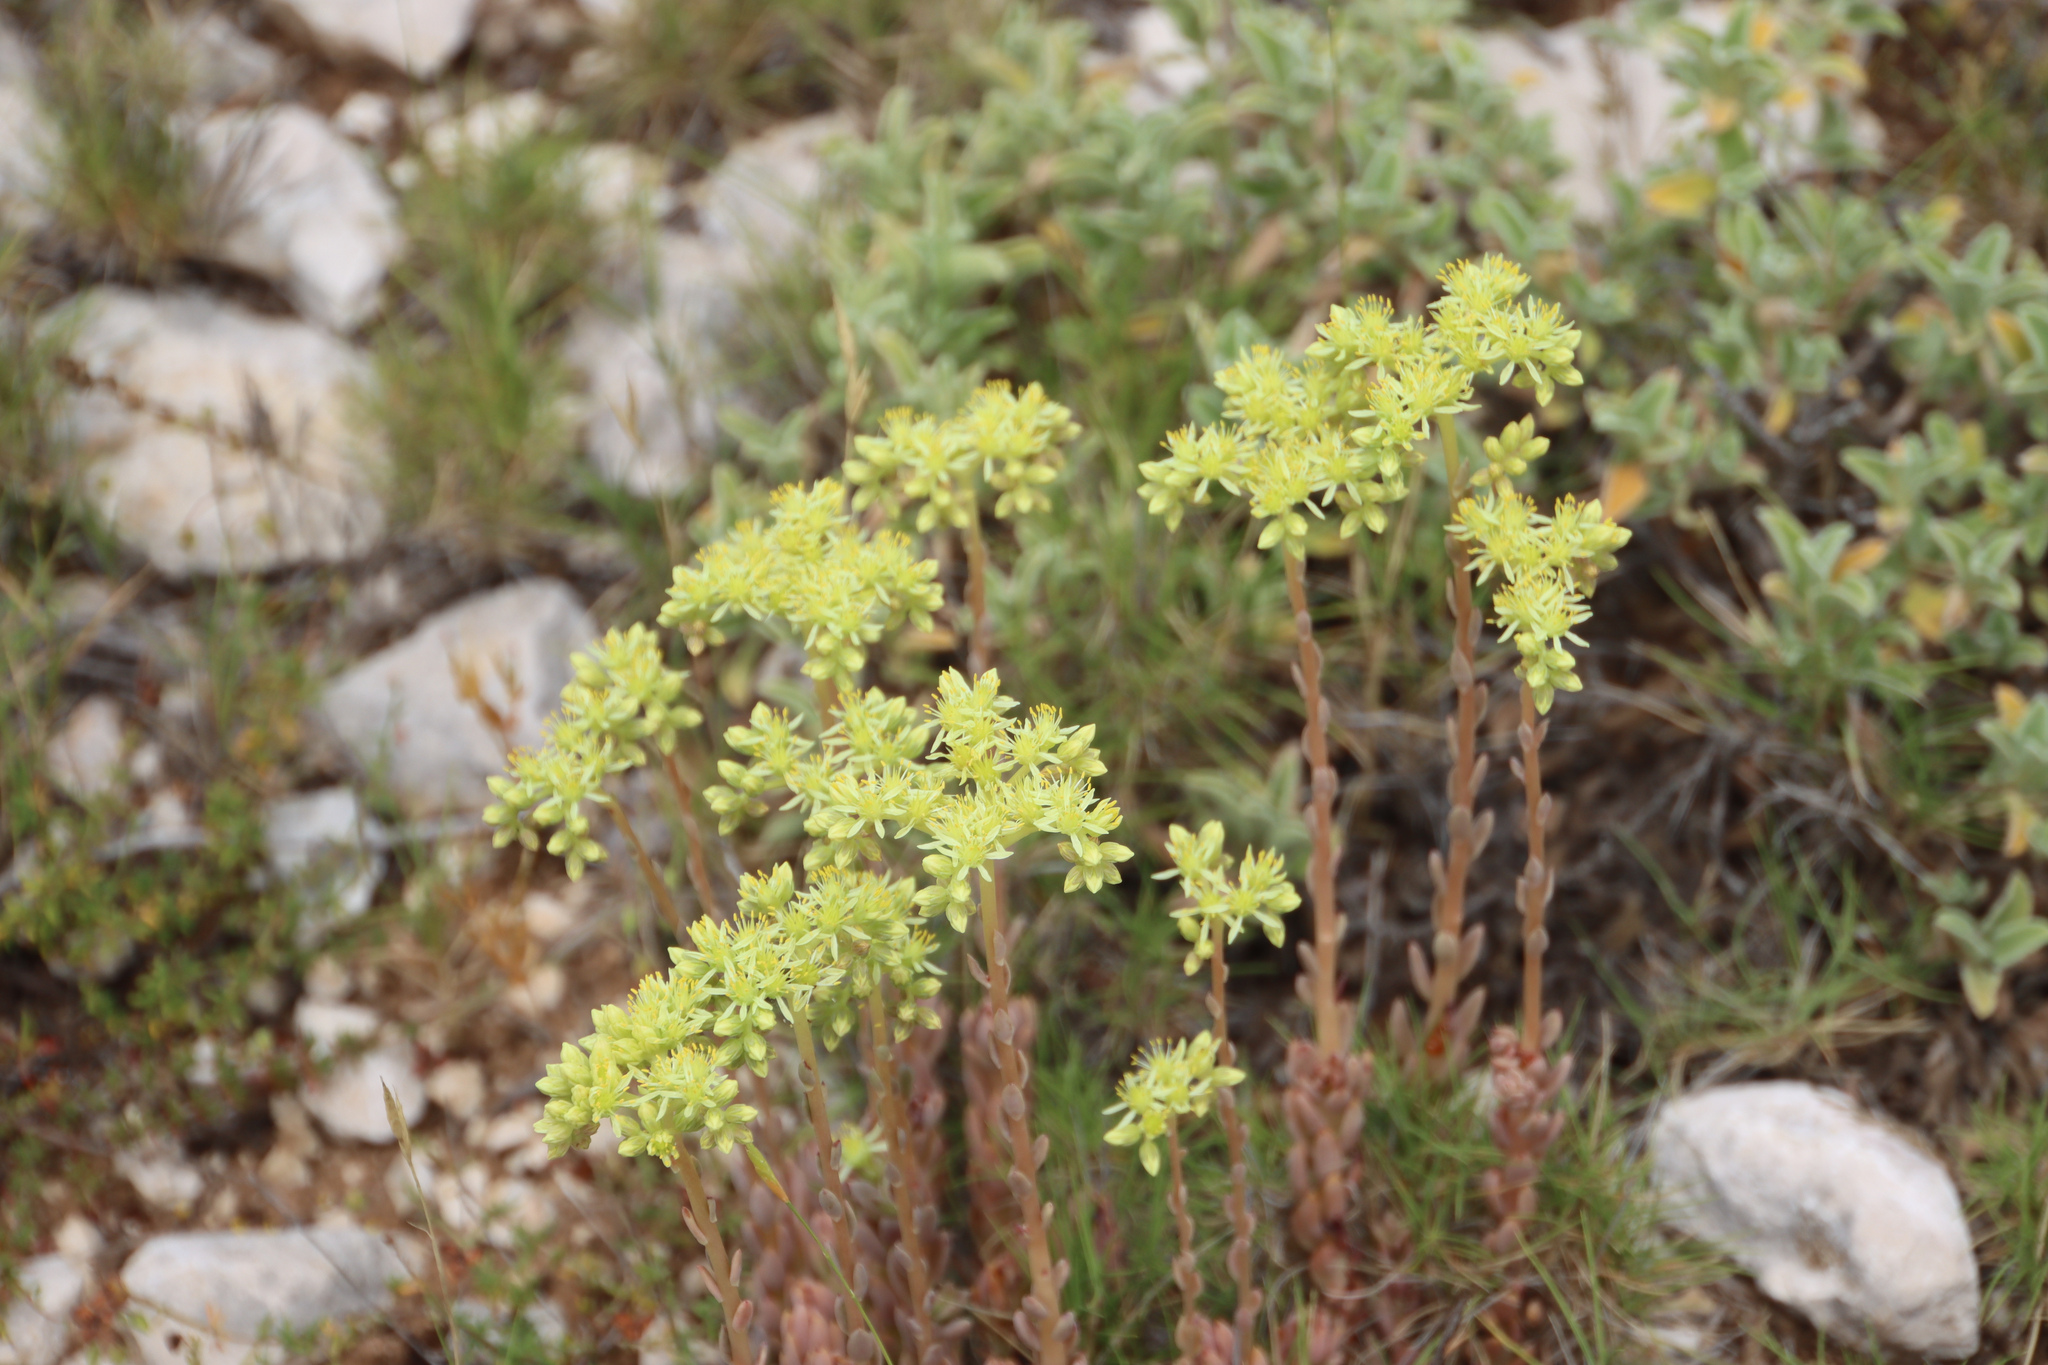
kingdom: Plantae
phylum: Tracheophyta
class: Magnoliopsida
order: Saxifragales
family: Crassulaceae
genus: Petrosedum
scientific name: Petrosedum sediforme
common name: Pale stonecrop
